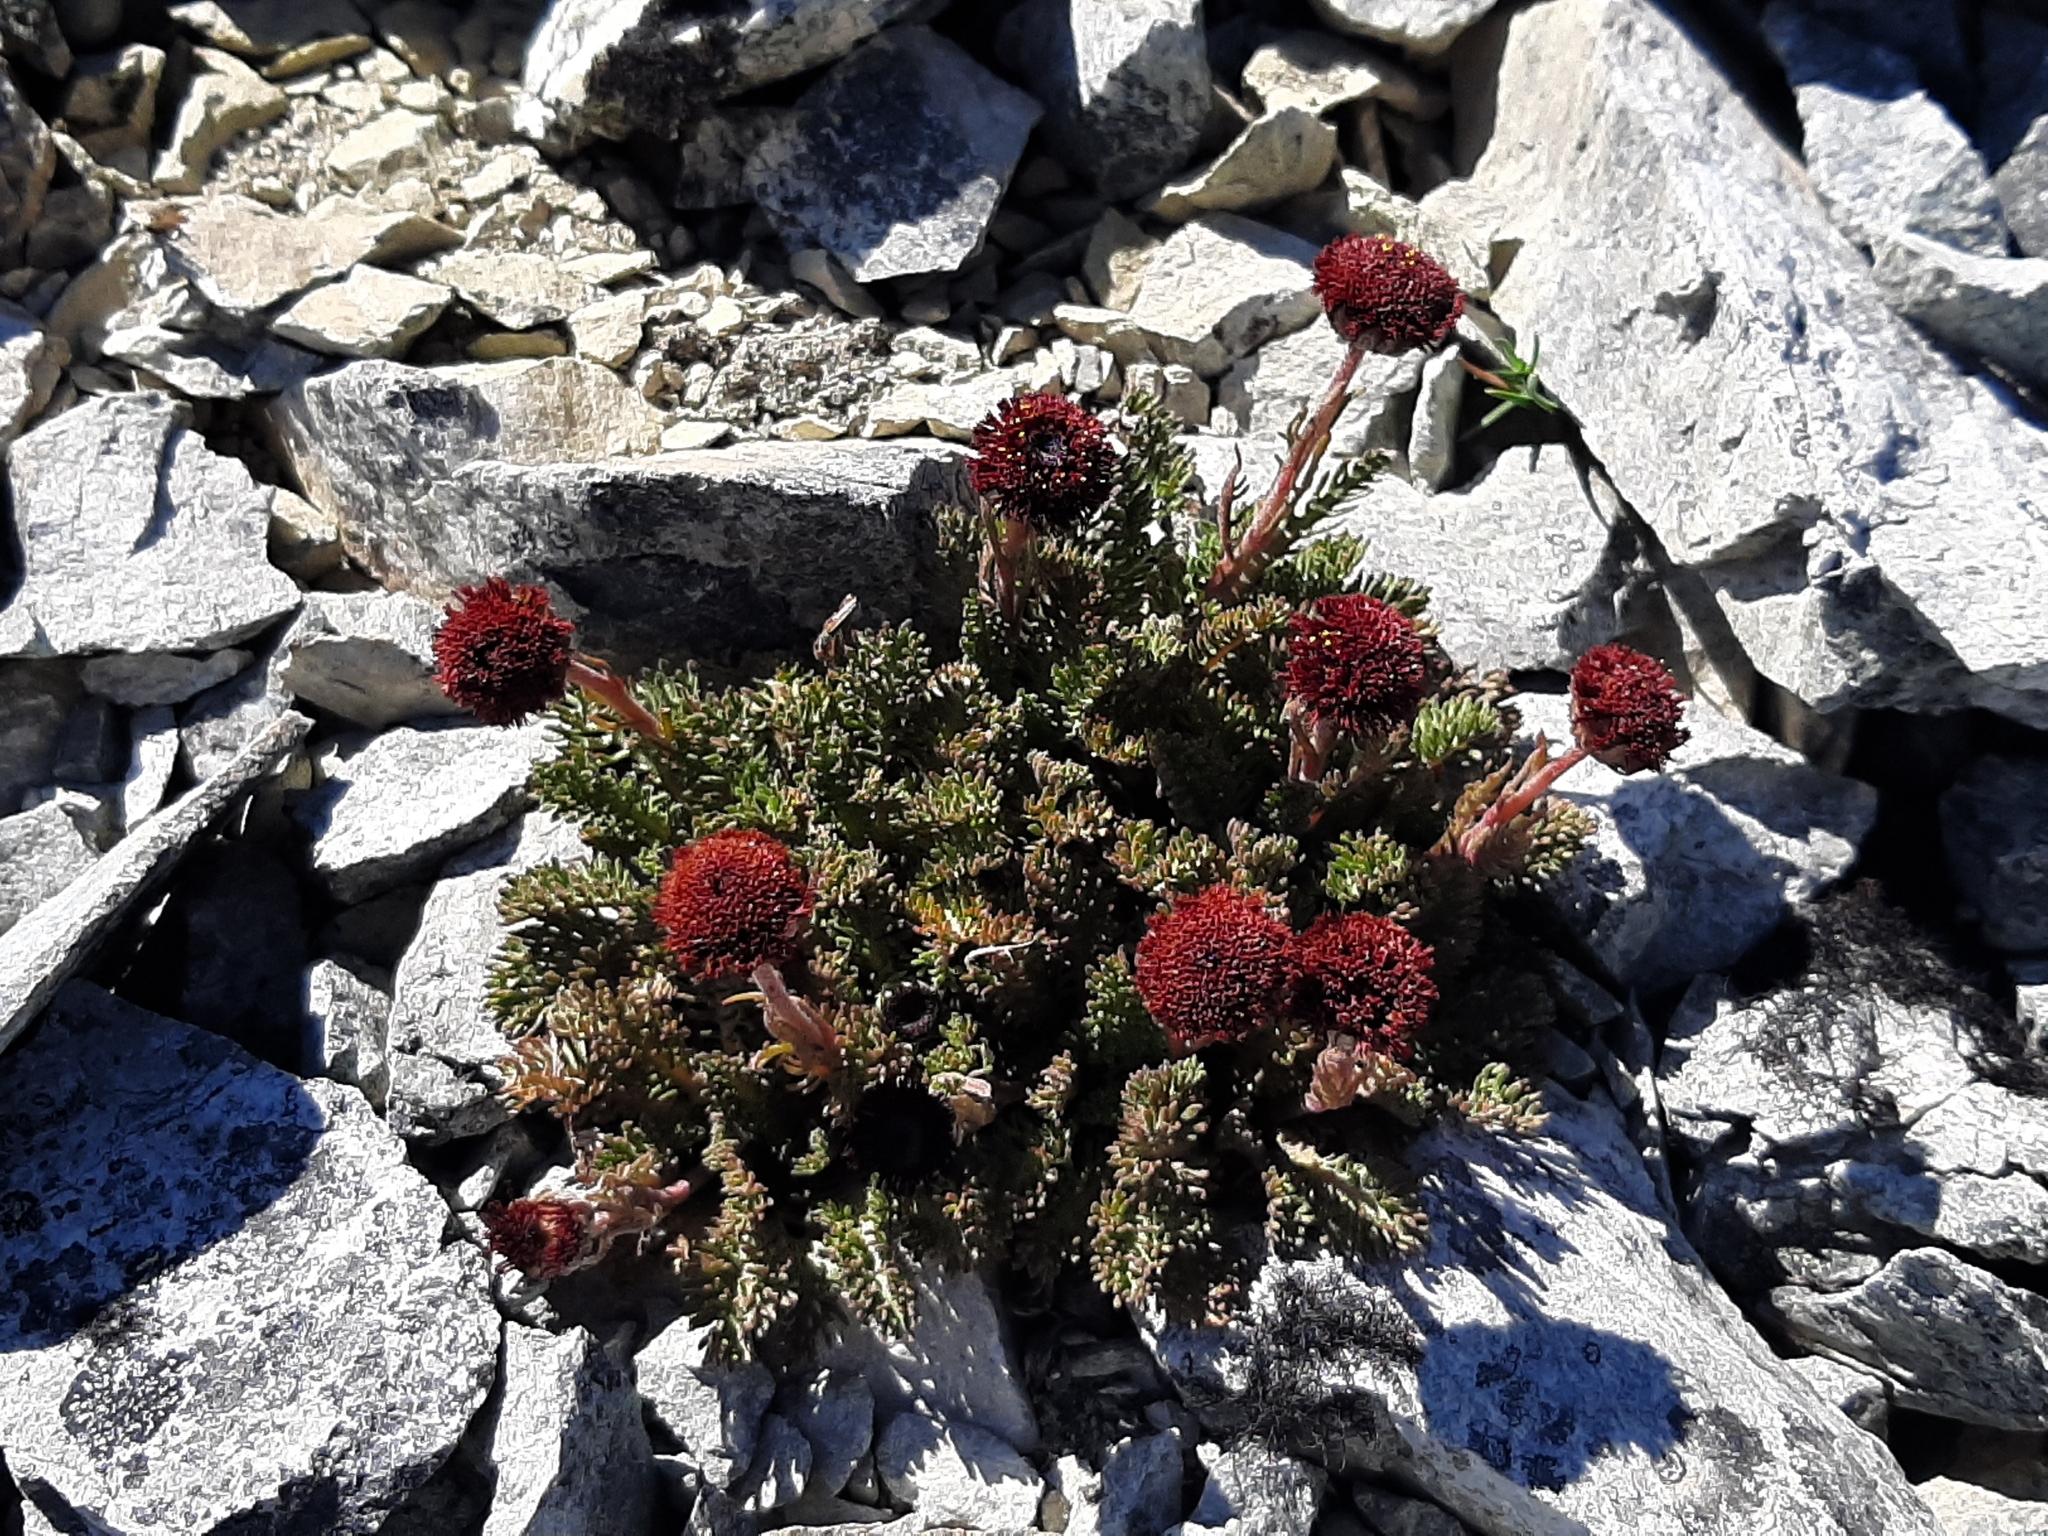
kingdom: Plantae
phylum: Tracheophyta
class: Magnoliopsida
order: Asterales
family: Asteraceae
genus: Leptinella
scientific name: Leptinella atrata
